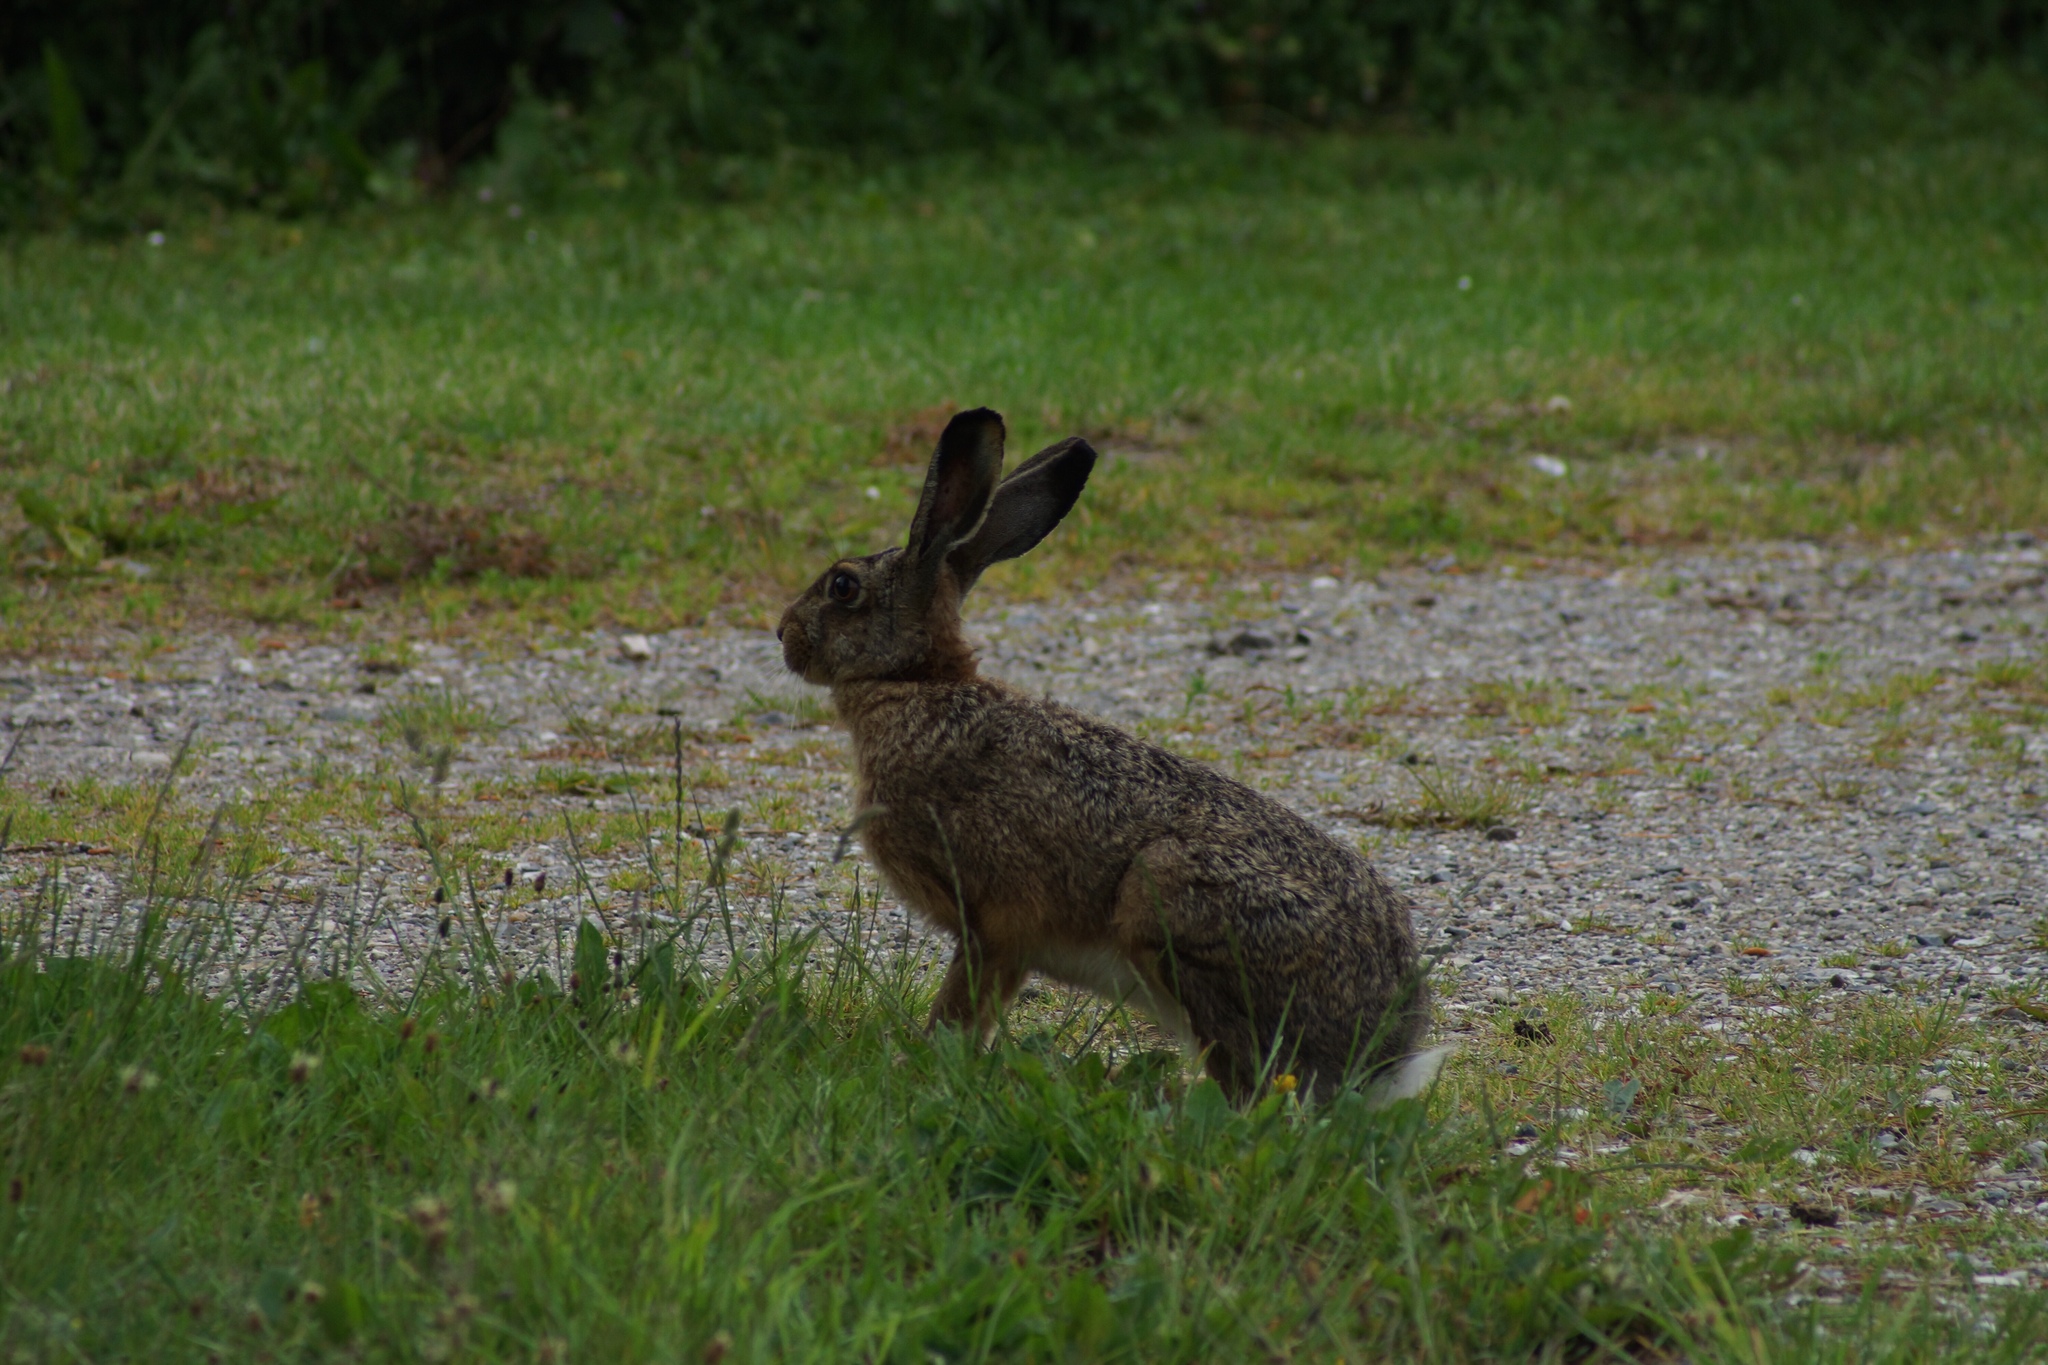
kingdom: Animalia
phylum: Chordata
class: Mammalia
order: Lagomorpha
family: Leporidae
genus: Lepus
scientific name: Lepus europaeus
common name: European hare
